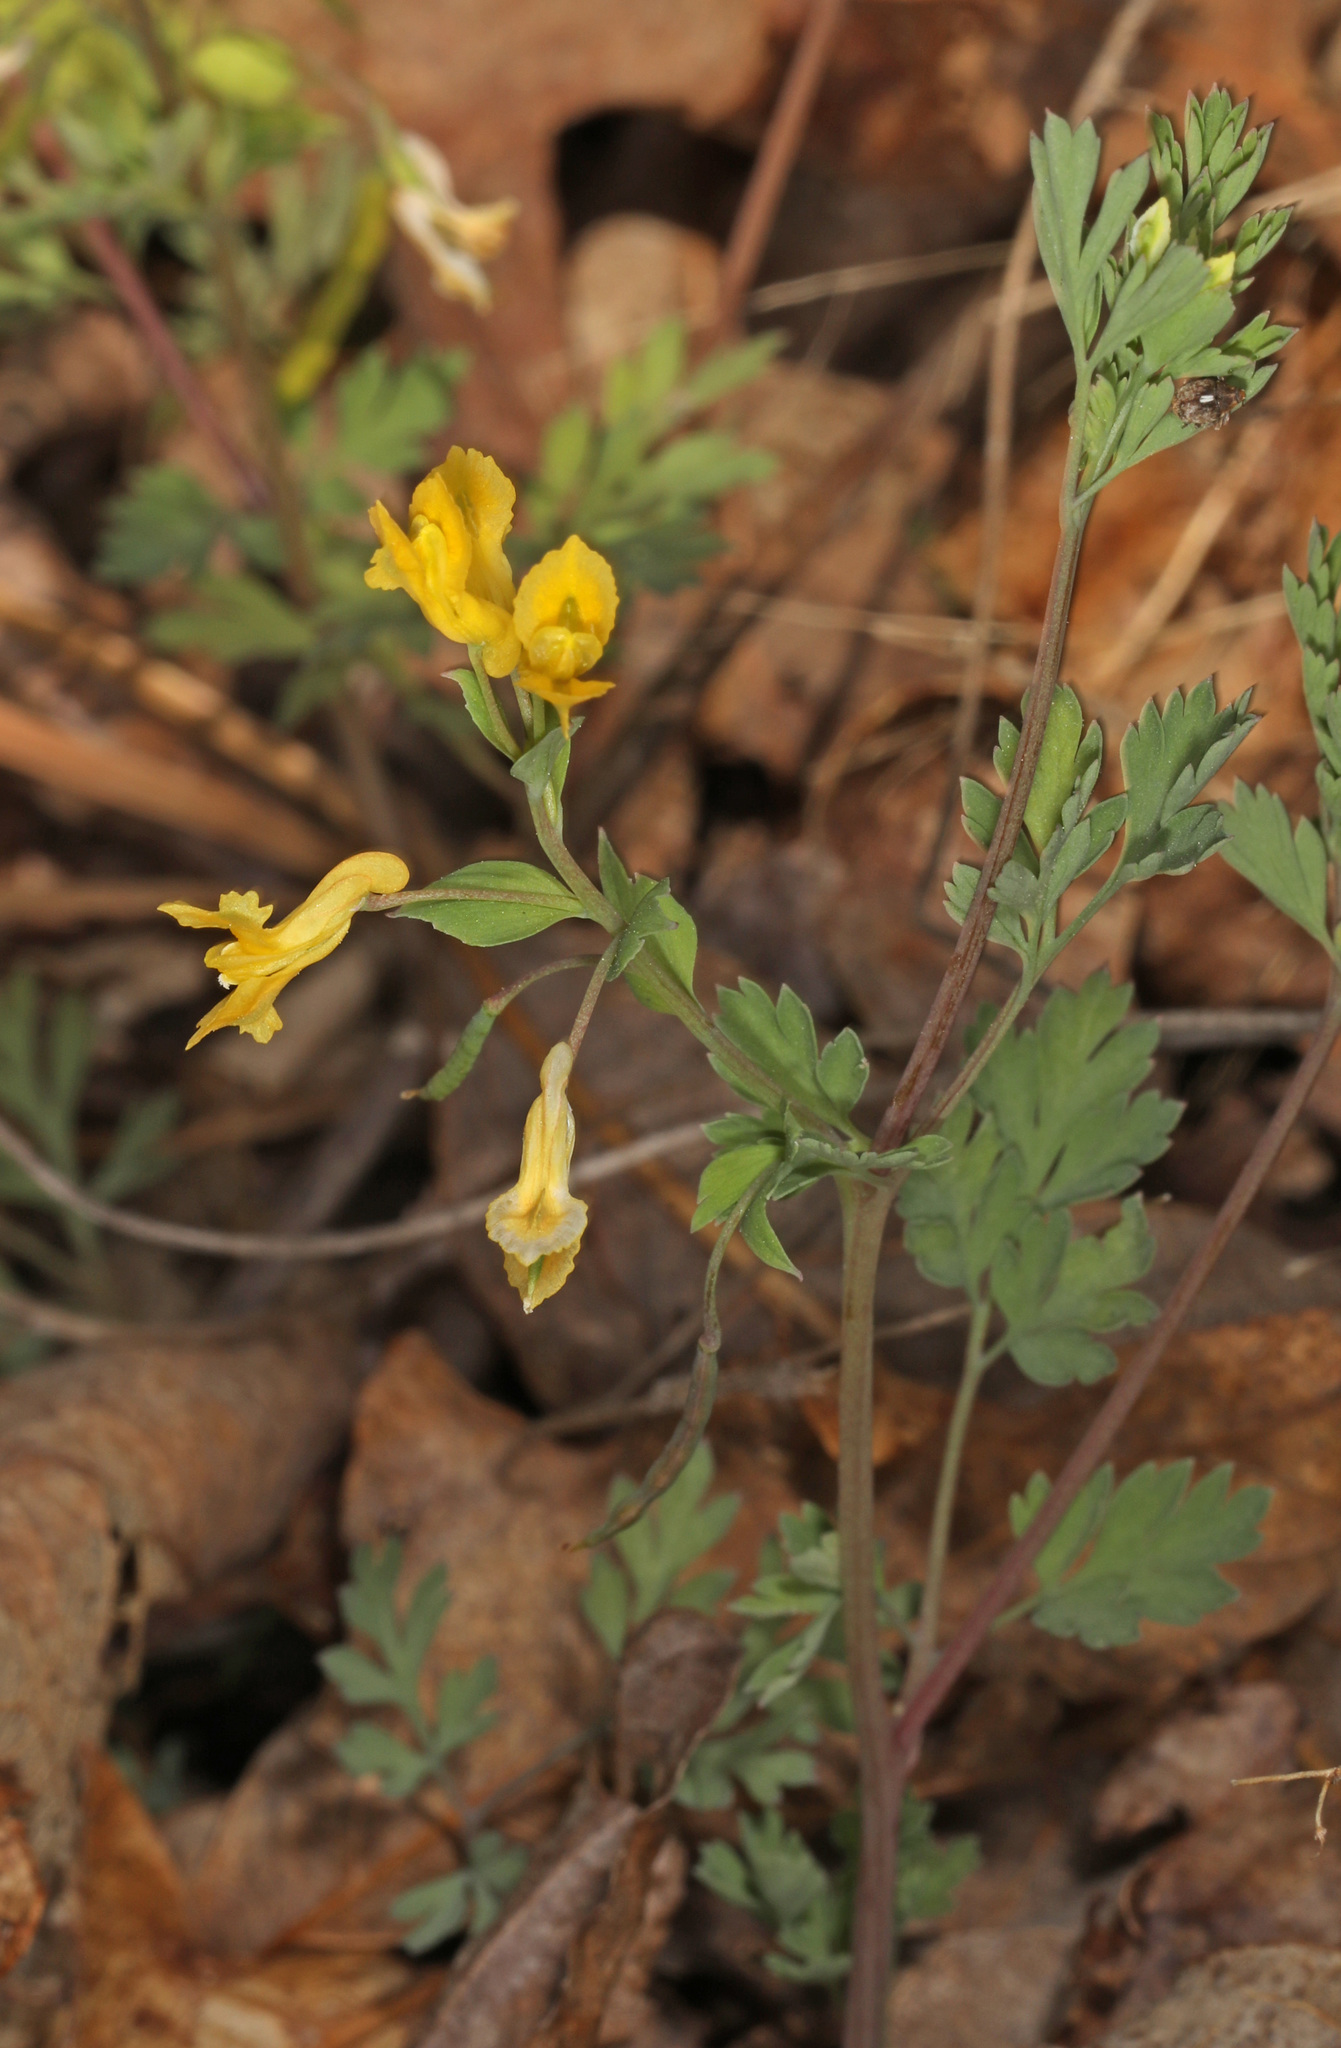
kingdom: Plantae
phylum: Tracheophyta
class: Magnoliopsida
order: Ranunculales
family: Papaveraceae
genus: Corydalis
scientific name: Corydalis flavula
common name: Yellow corydalis
